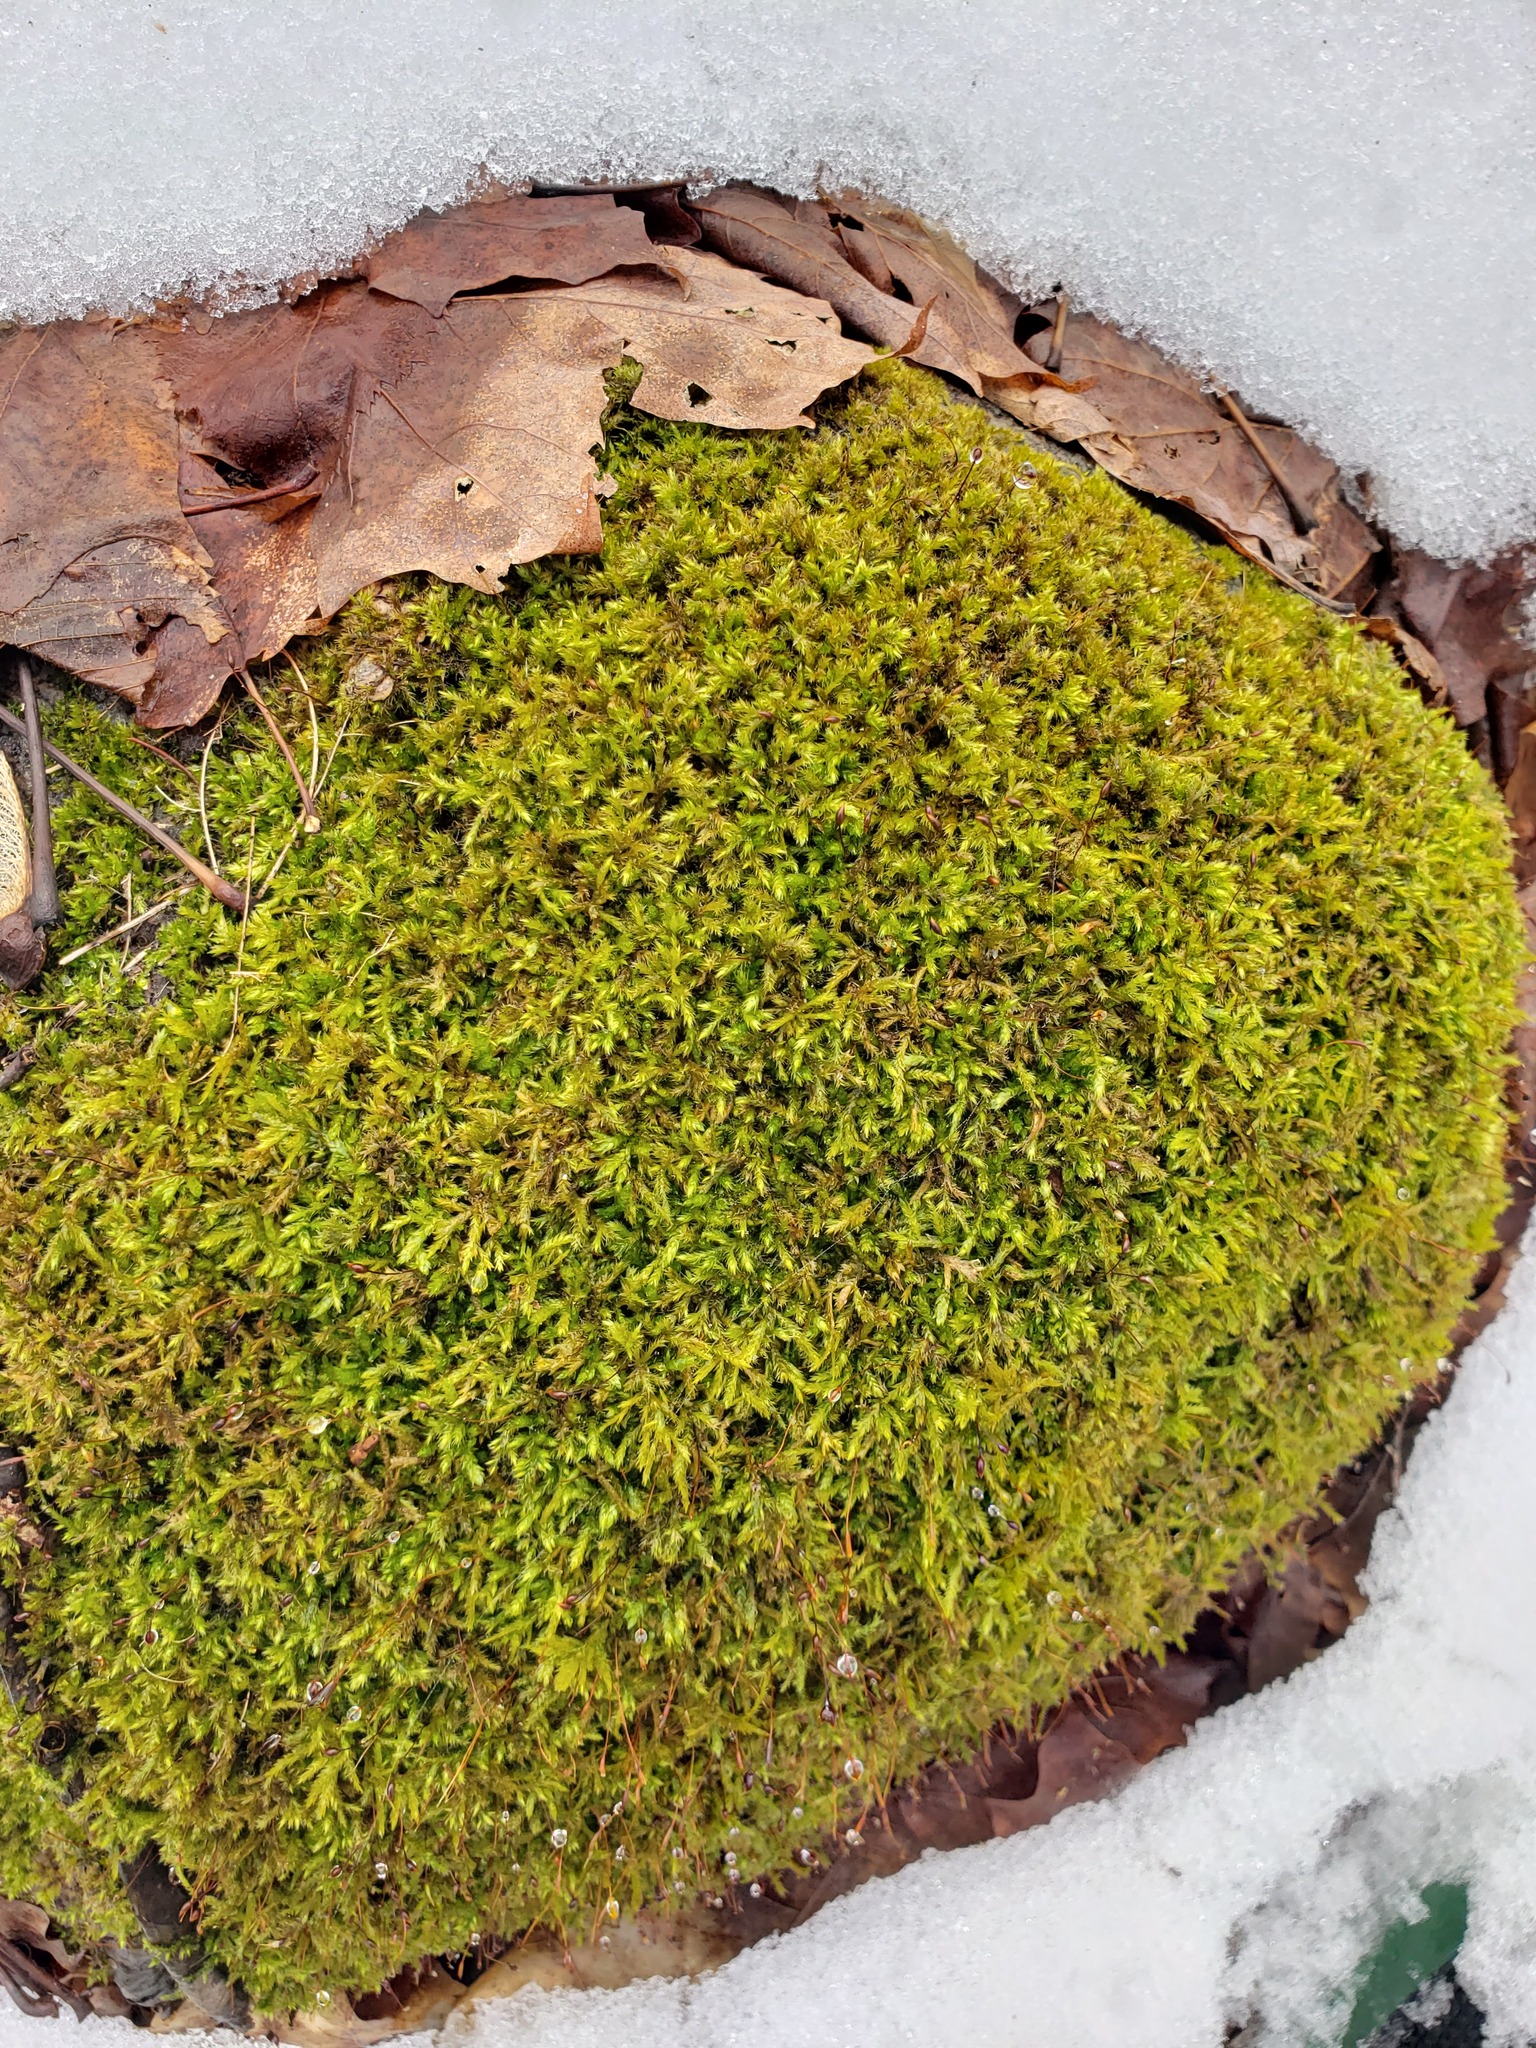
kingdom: Plantae
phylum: Bryophyta
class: Bryopsida
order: Hypnales
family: Neckeraceae
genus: Pseudanomodon
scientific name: Pseudanomodon attenuatus
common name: Tree-skirt moss
